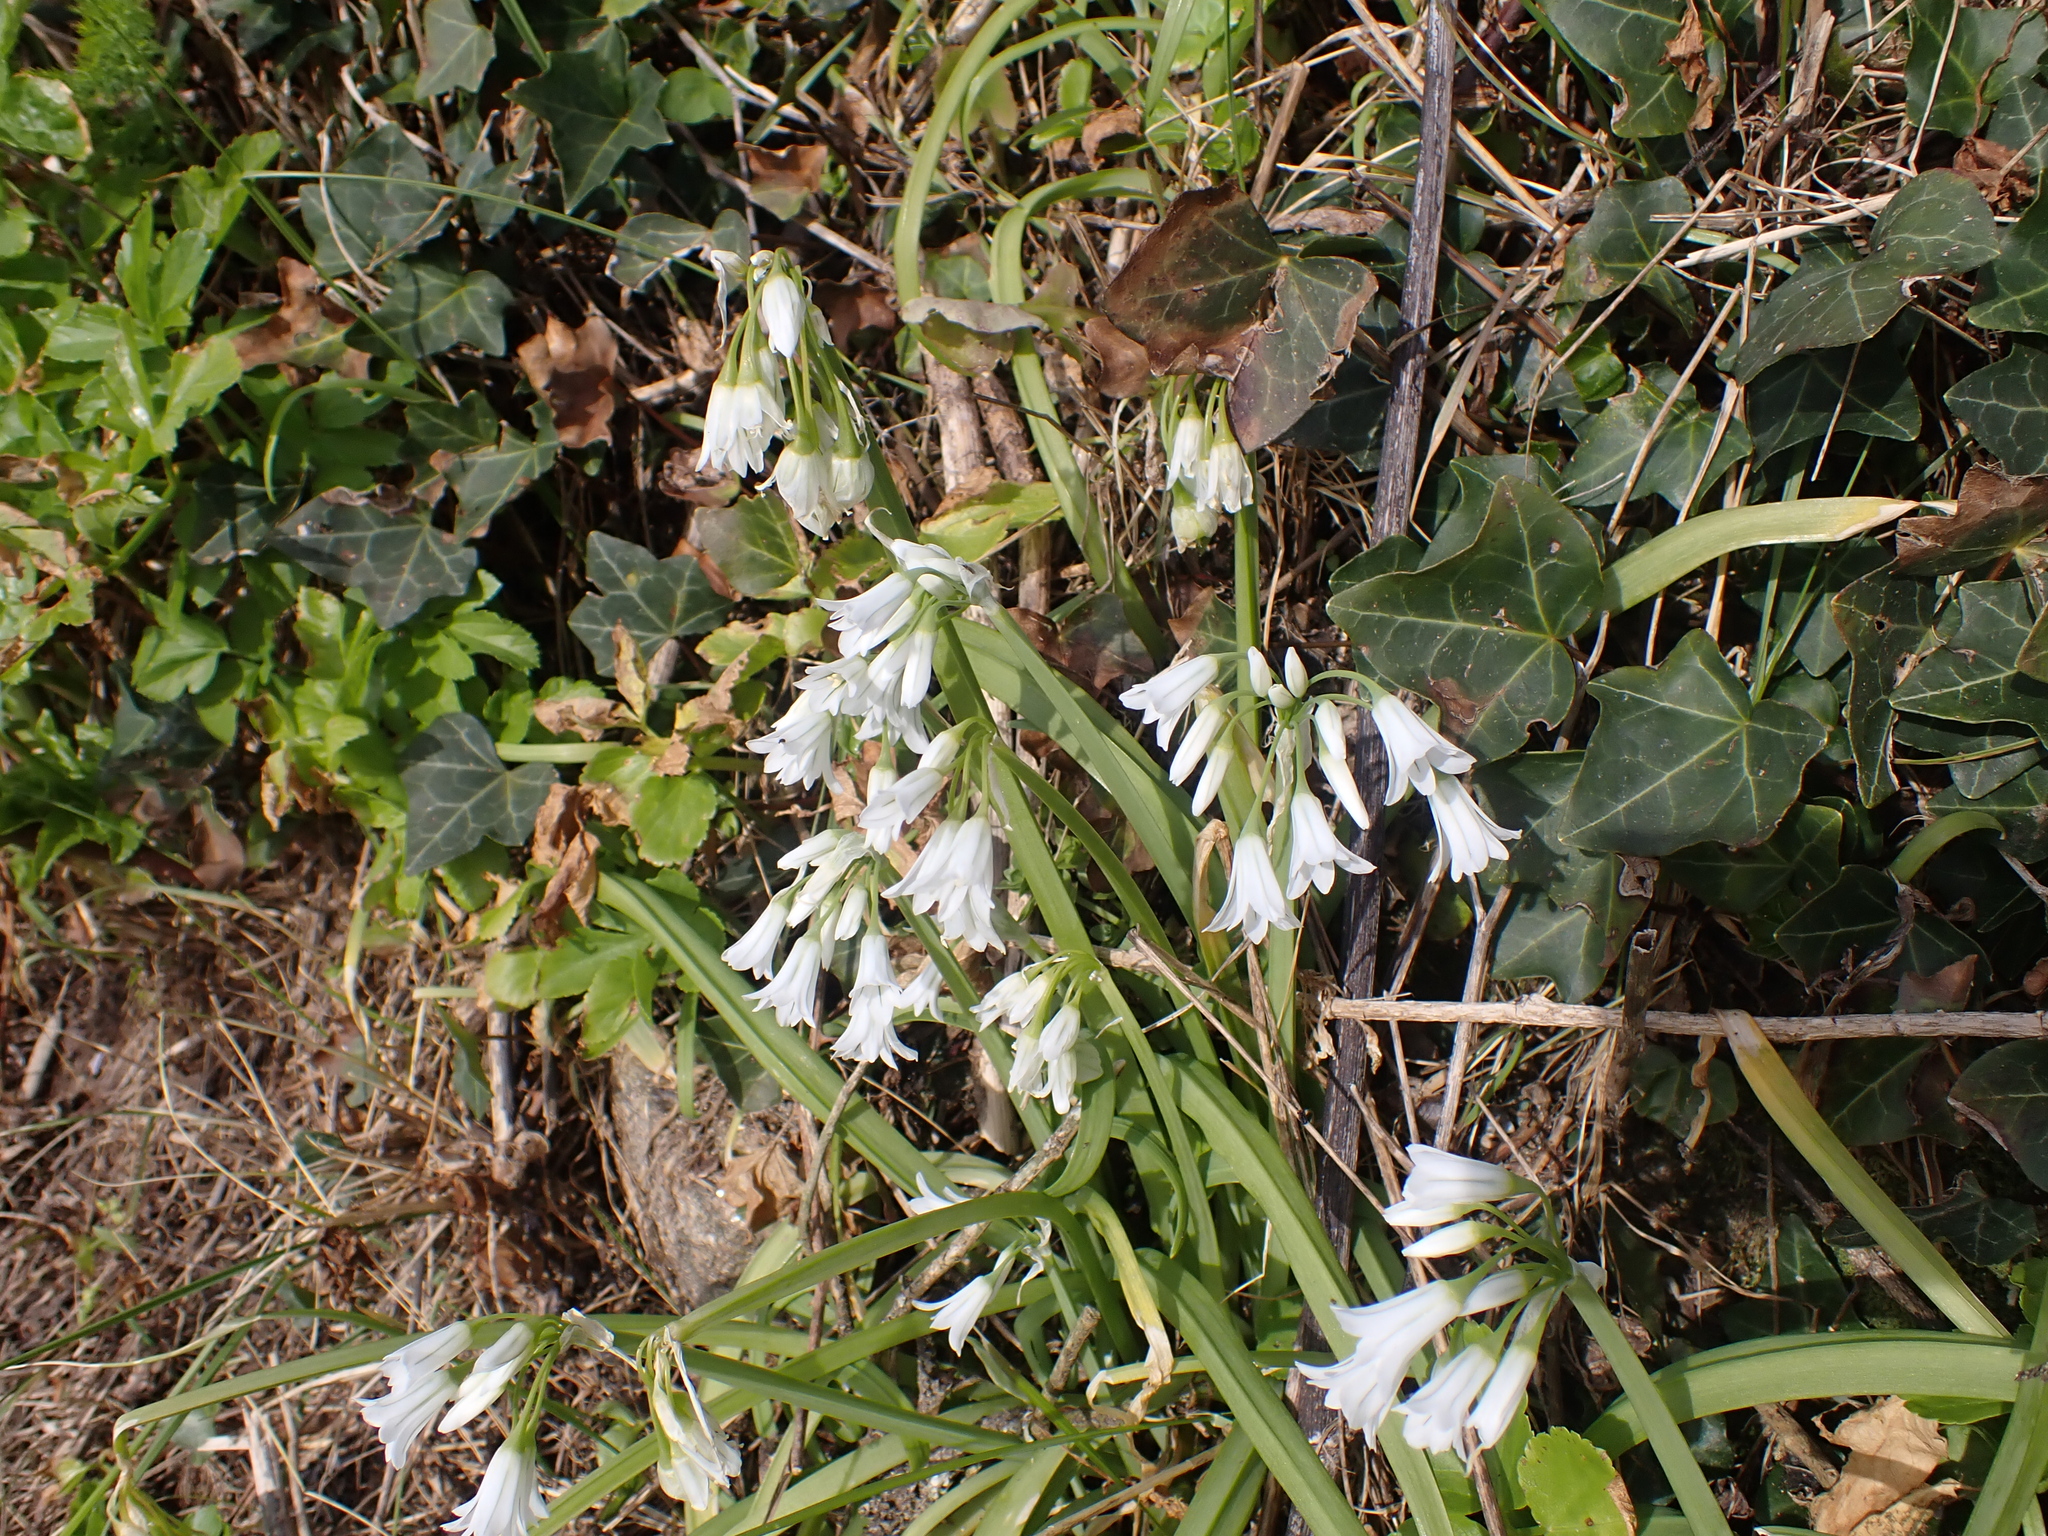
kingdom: Plantae
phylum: Tracheophyta
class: Liliopsida
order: Asparagales
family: Amaryllidaceae
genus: Allium
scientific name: Allium triquetrum
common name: Three-cornered garlic
